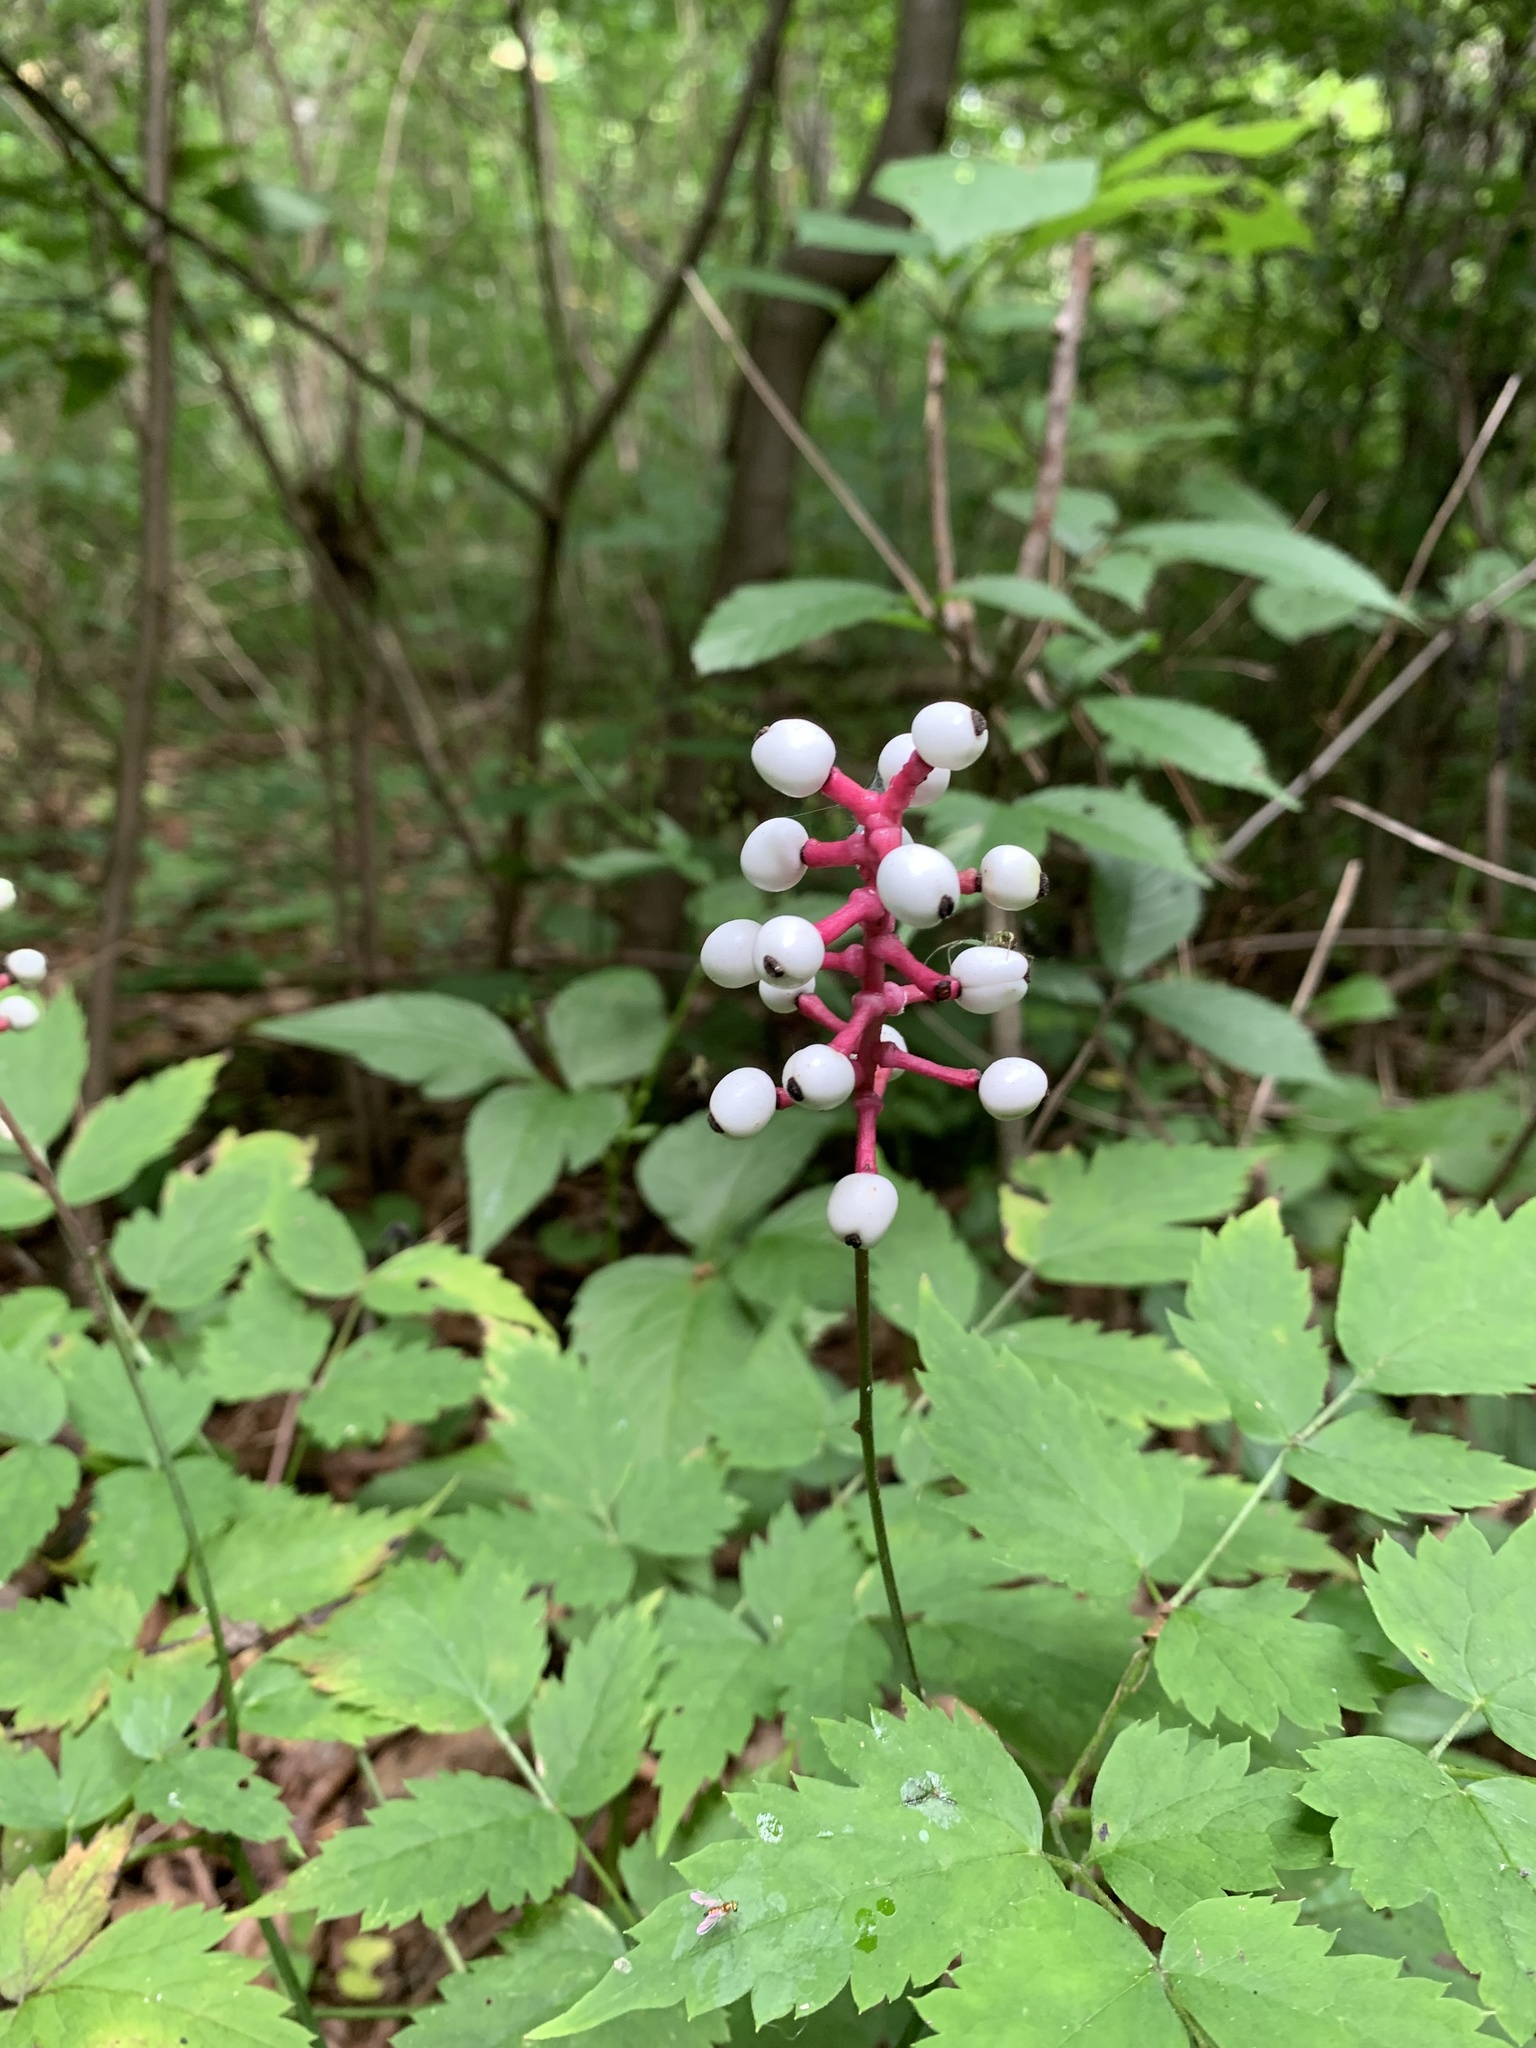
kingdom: Plantae
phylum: Tracheophyta
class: Magnoliopsida
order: Ranunculales
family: Ranunculaceae
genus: Actaea
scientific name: Actaea pachypoda
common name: Doll's-eyes
